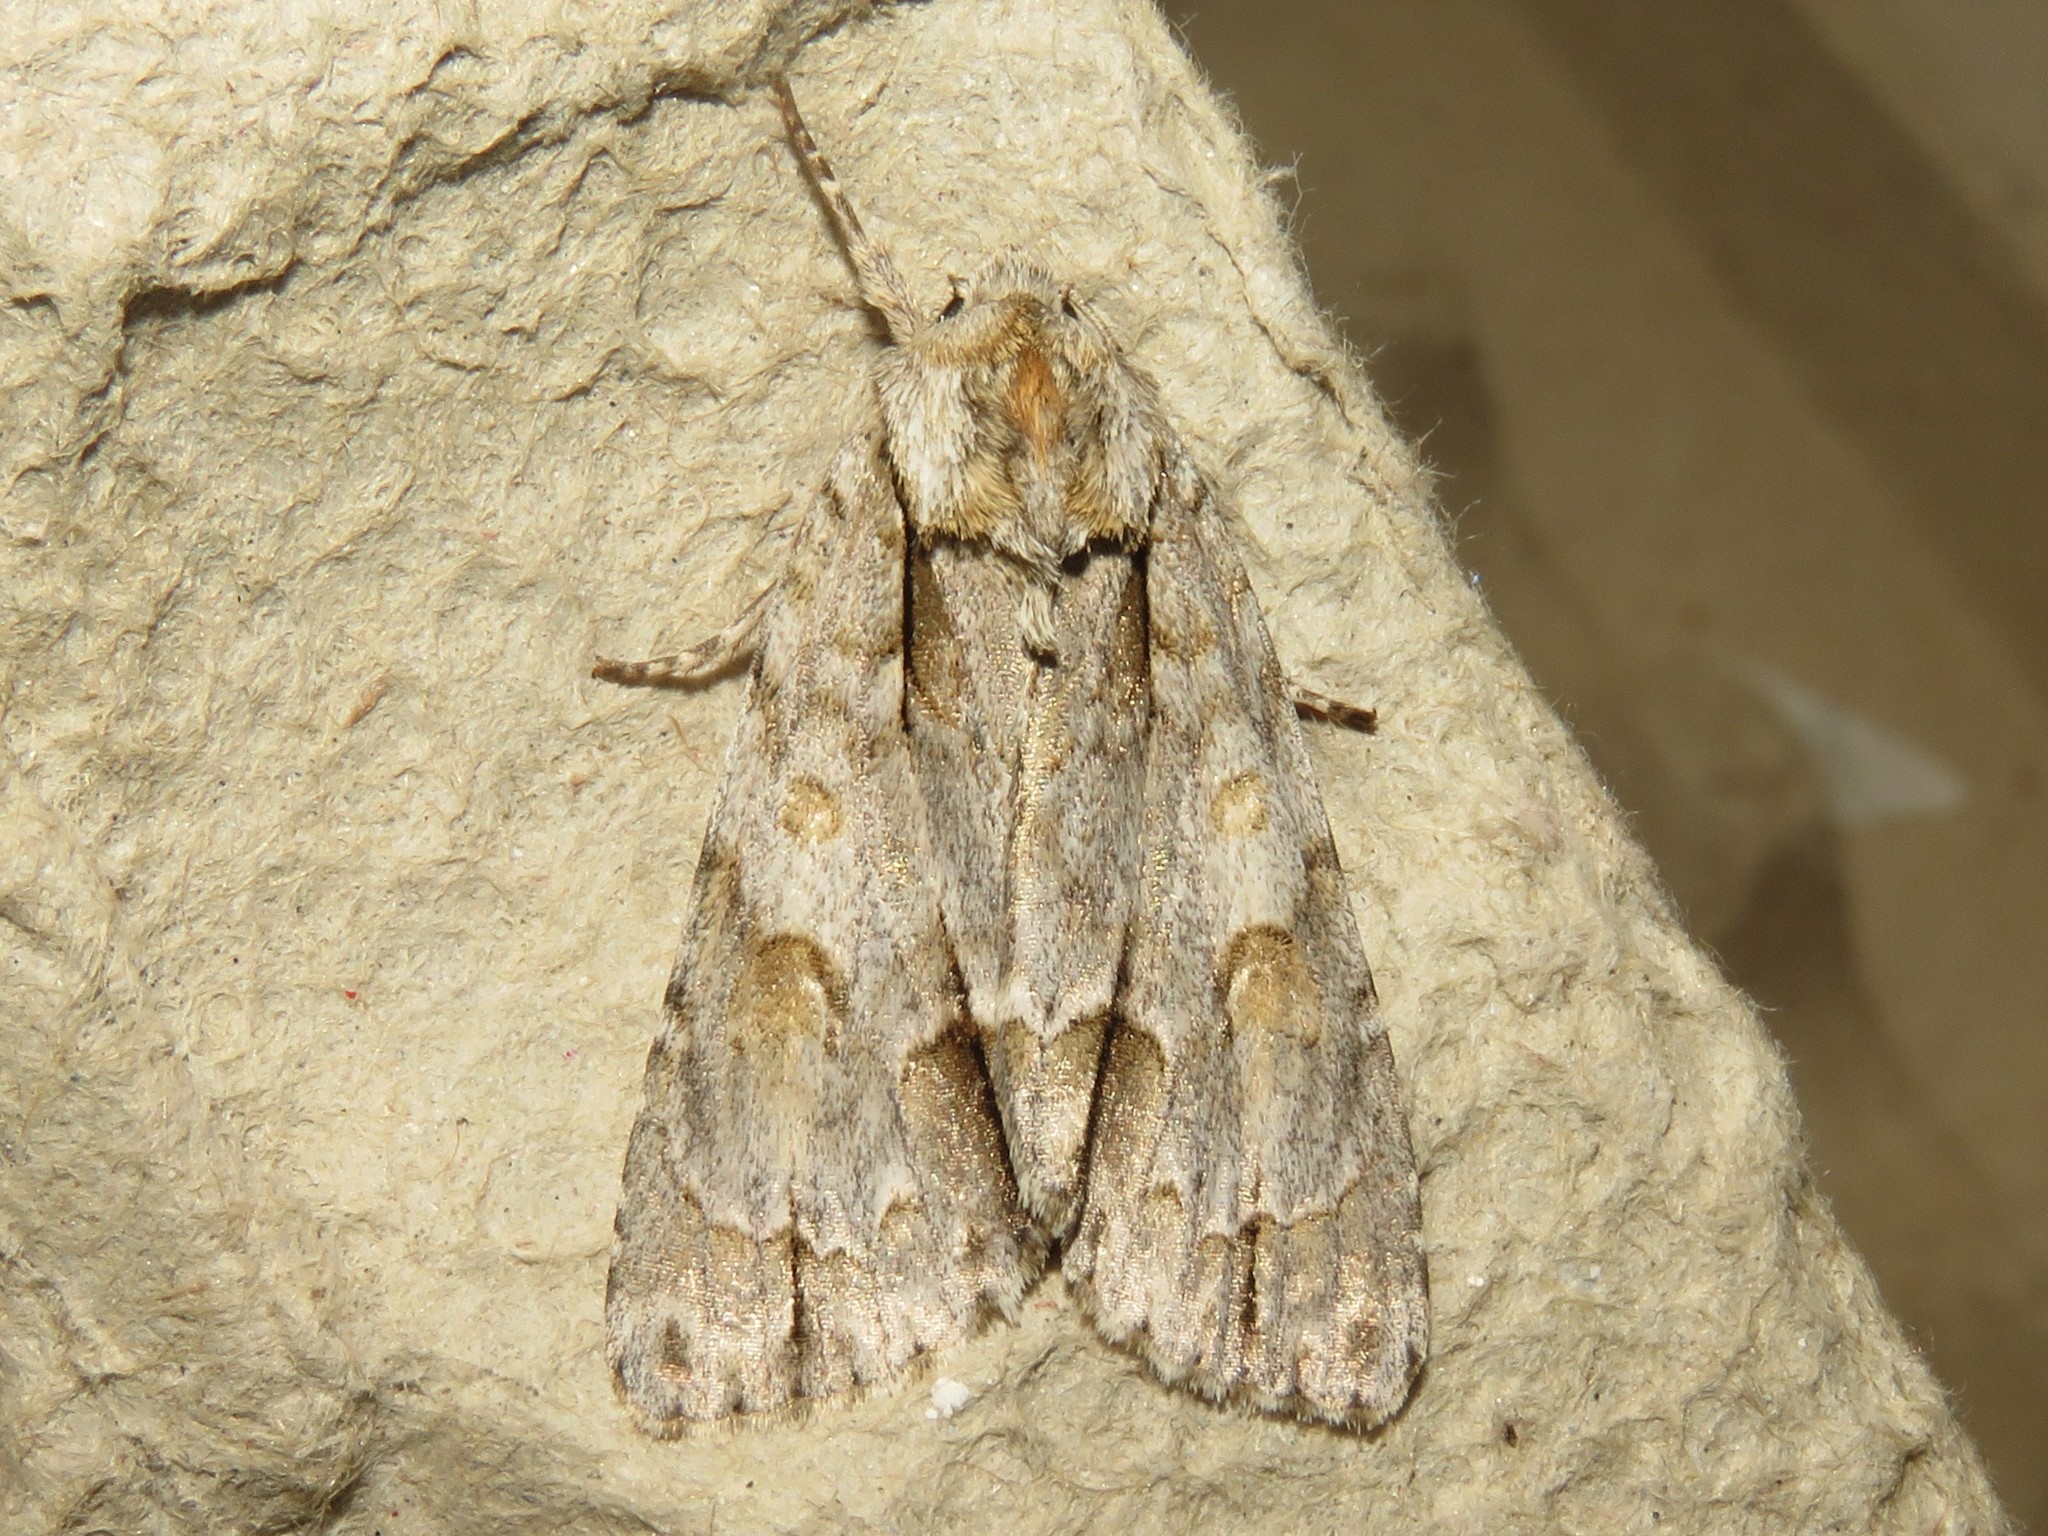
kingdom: Animalia
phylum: Arthropoda
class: Insecta
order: Lepidoptera
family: Noctuidae
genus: Acronicta
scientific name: Acronicta morula
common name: Ochre dagger
